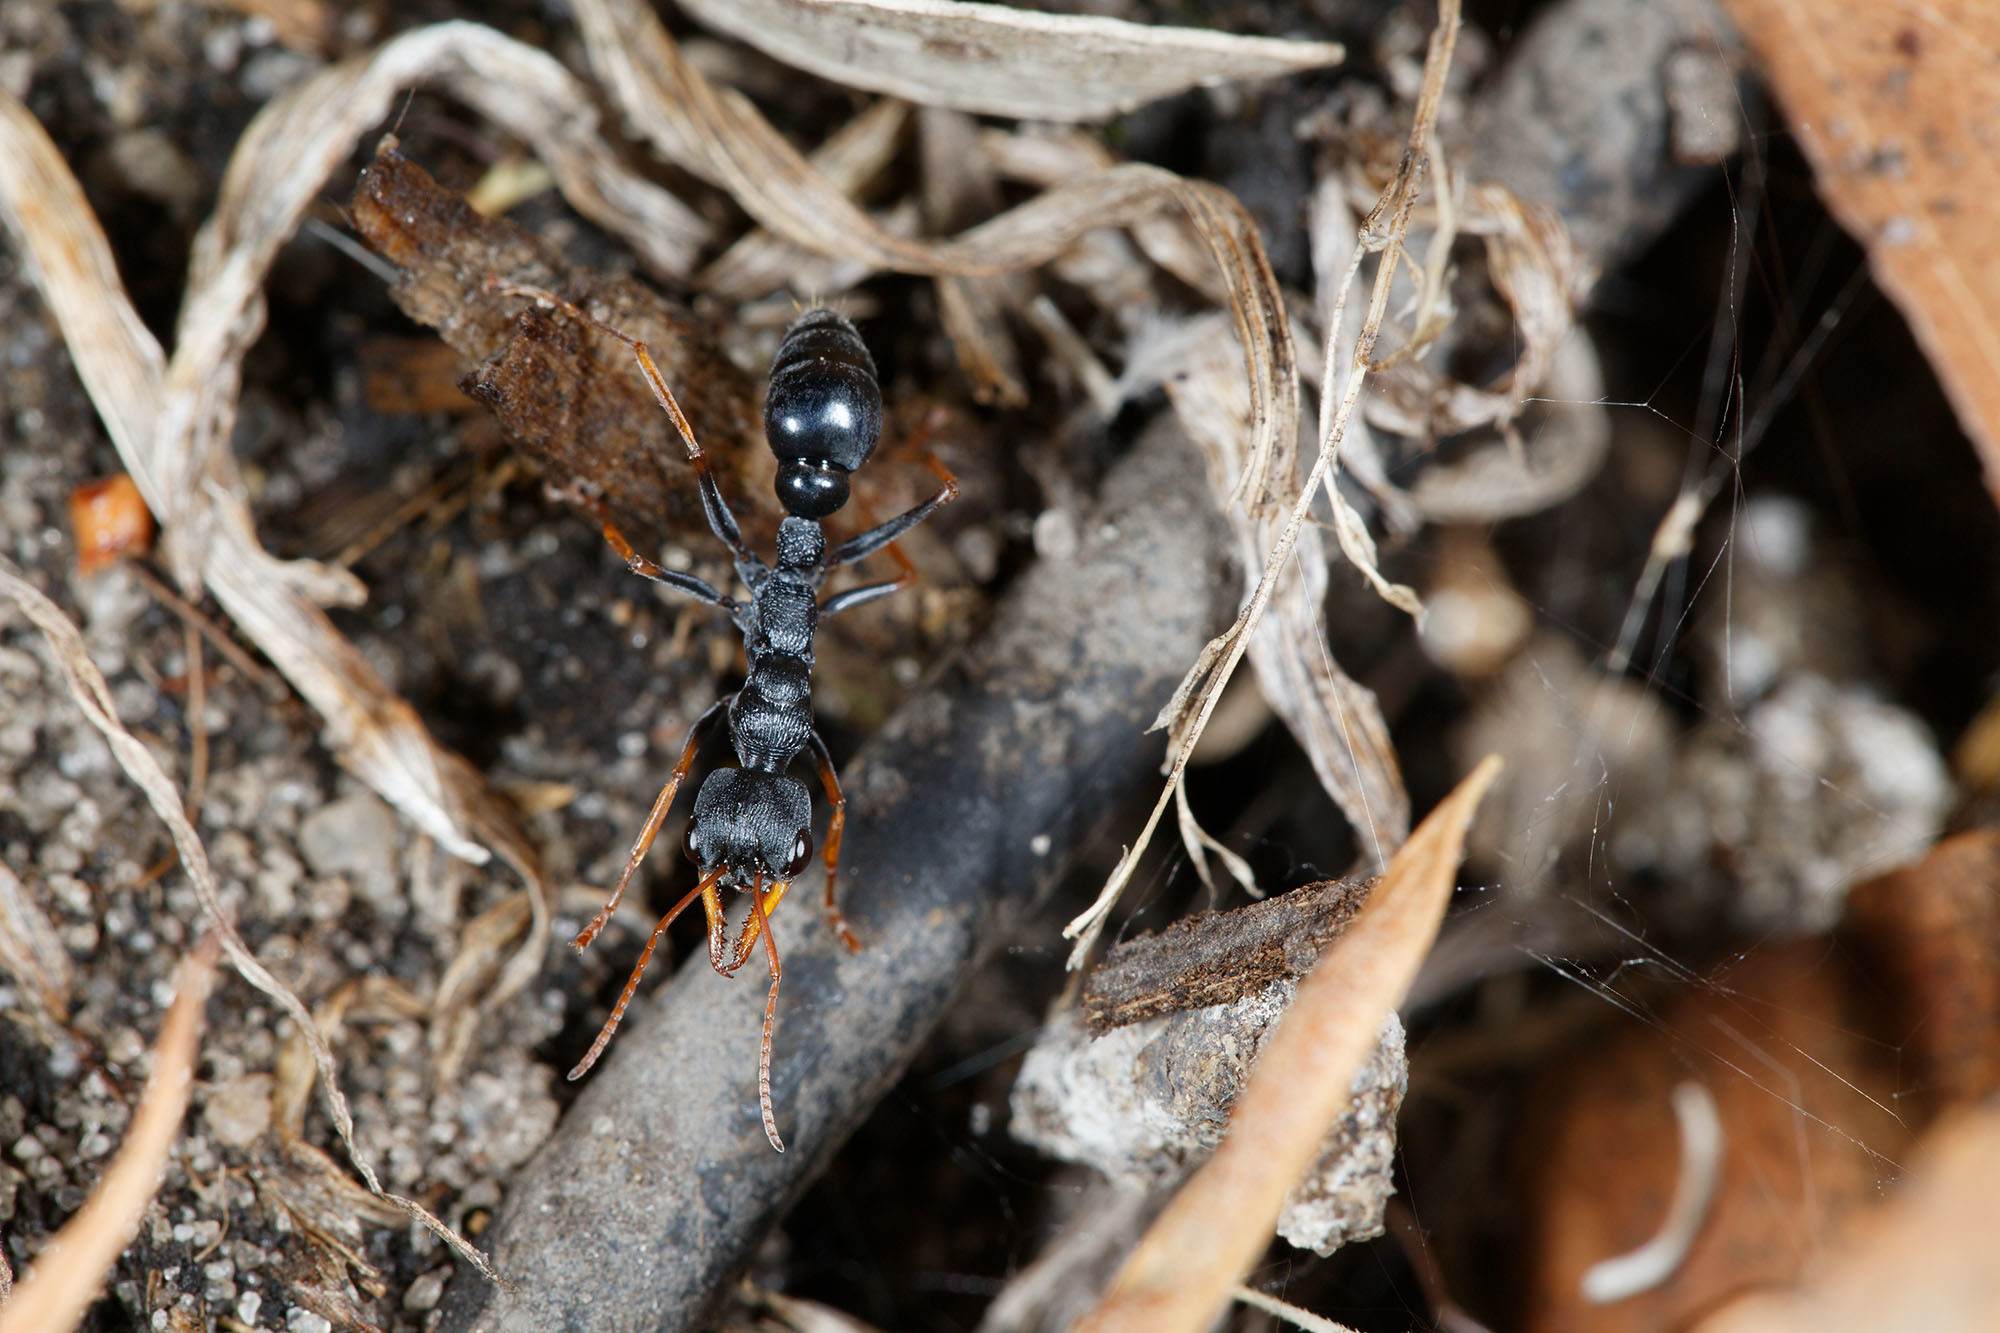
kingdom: Animalia
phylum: Arthropoda
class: Insecta
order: Hymenoptera
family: Formicidae
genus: Myrmecia
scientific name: Myrmecia pilosula
